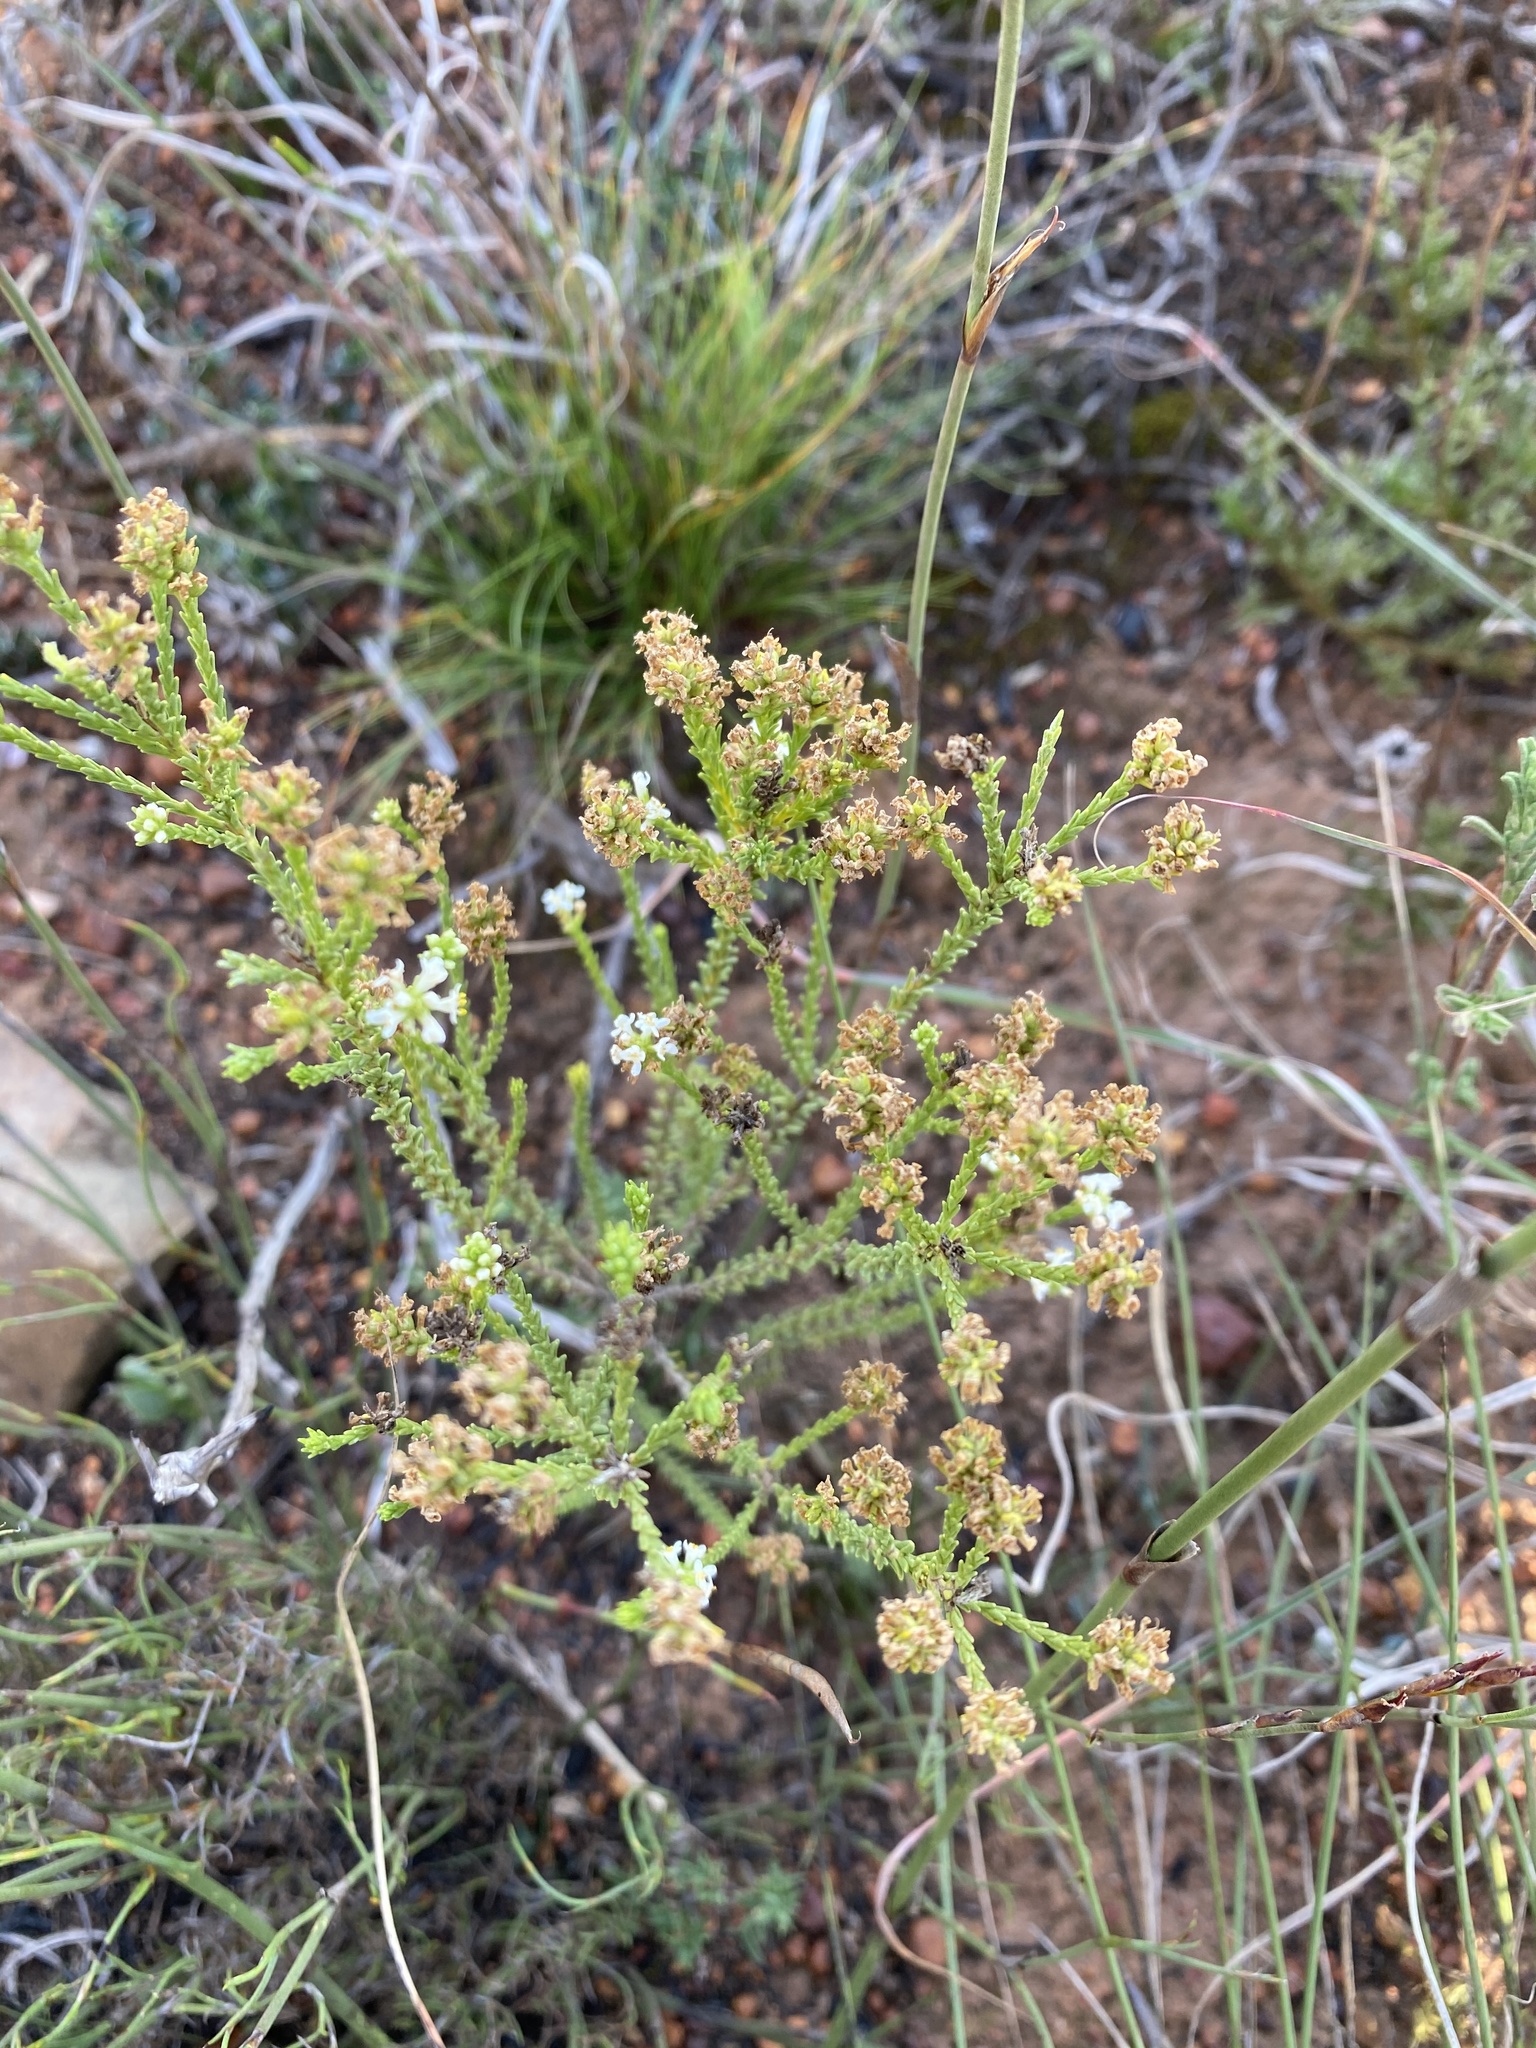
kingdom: Plantae
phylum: Tracheophyta
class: Magnoliopsida
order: Lamiales
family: Scrophulariaceae
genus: Selago
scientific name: Selago ramosissima
